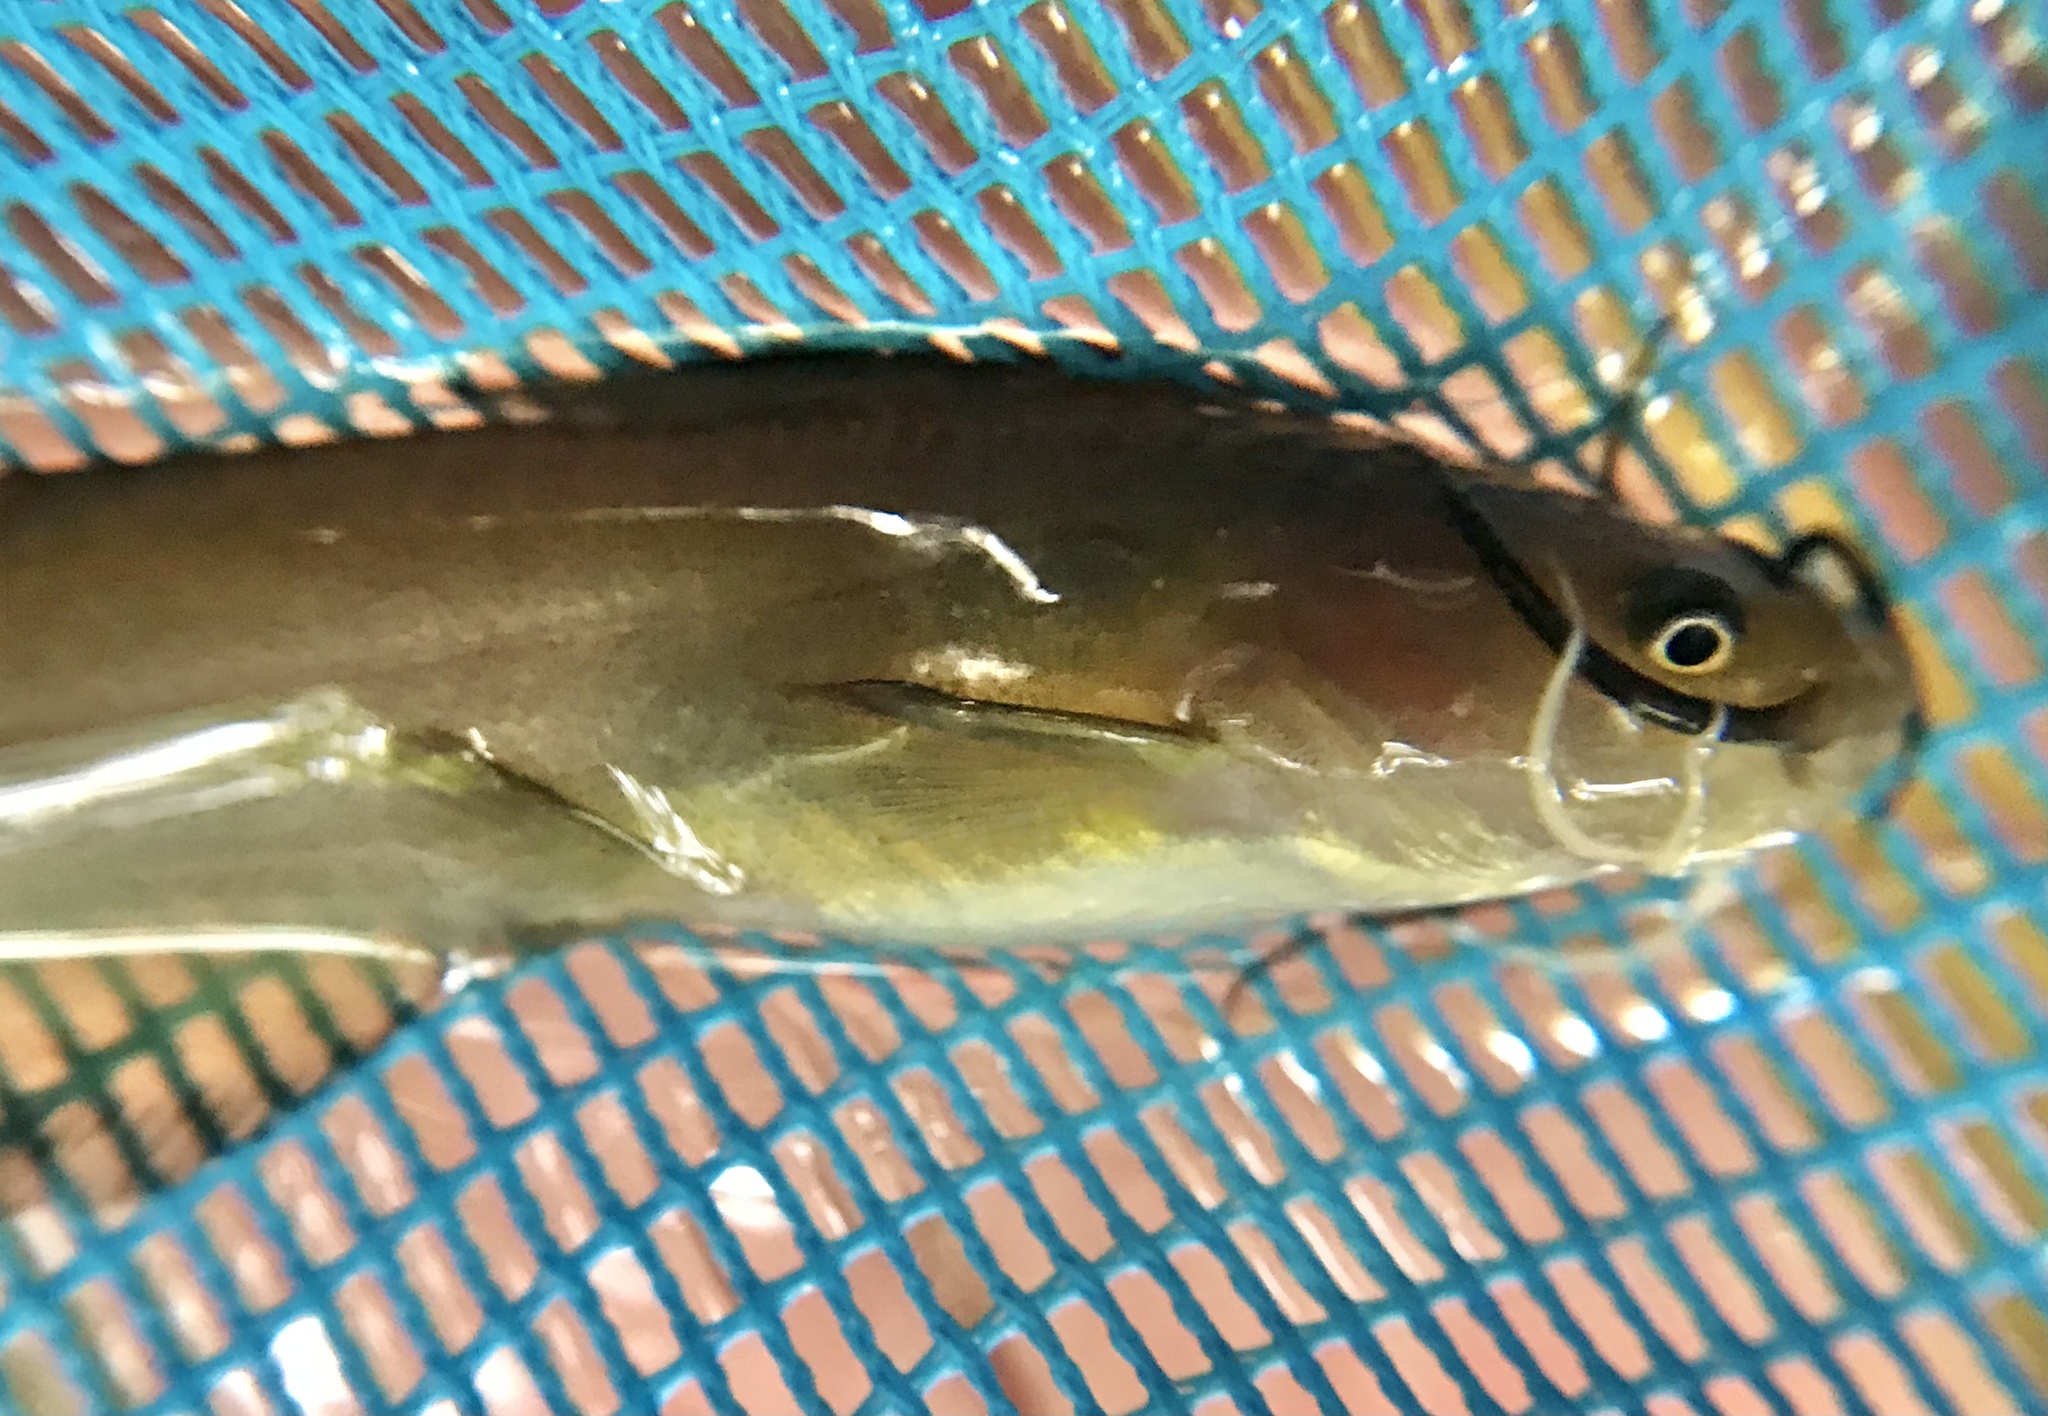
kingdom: Animalia
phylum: Chordata
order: Siluriformes
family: Ictaluridae
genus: Ameiurus
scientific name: Ameiurus natalis
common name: Yellow bullhead
